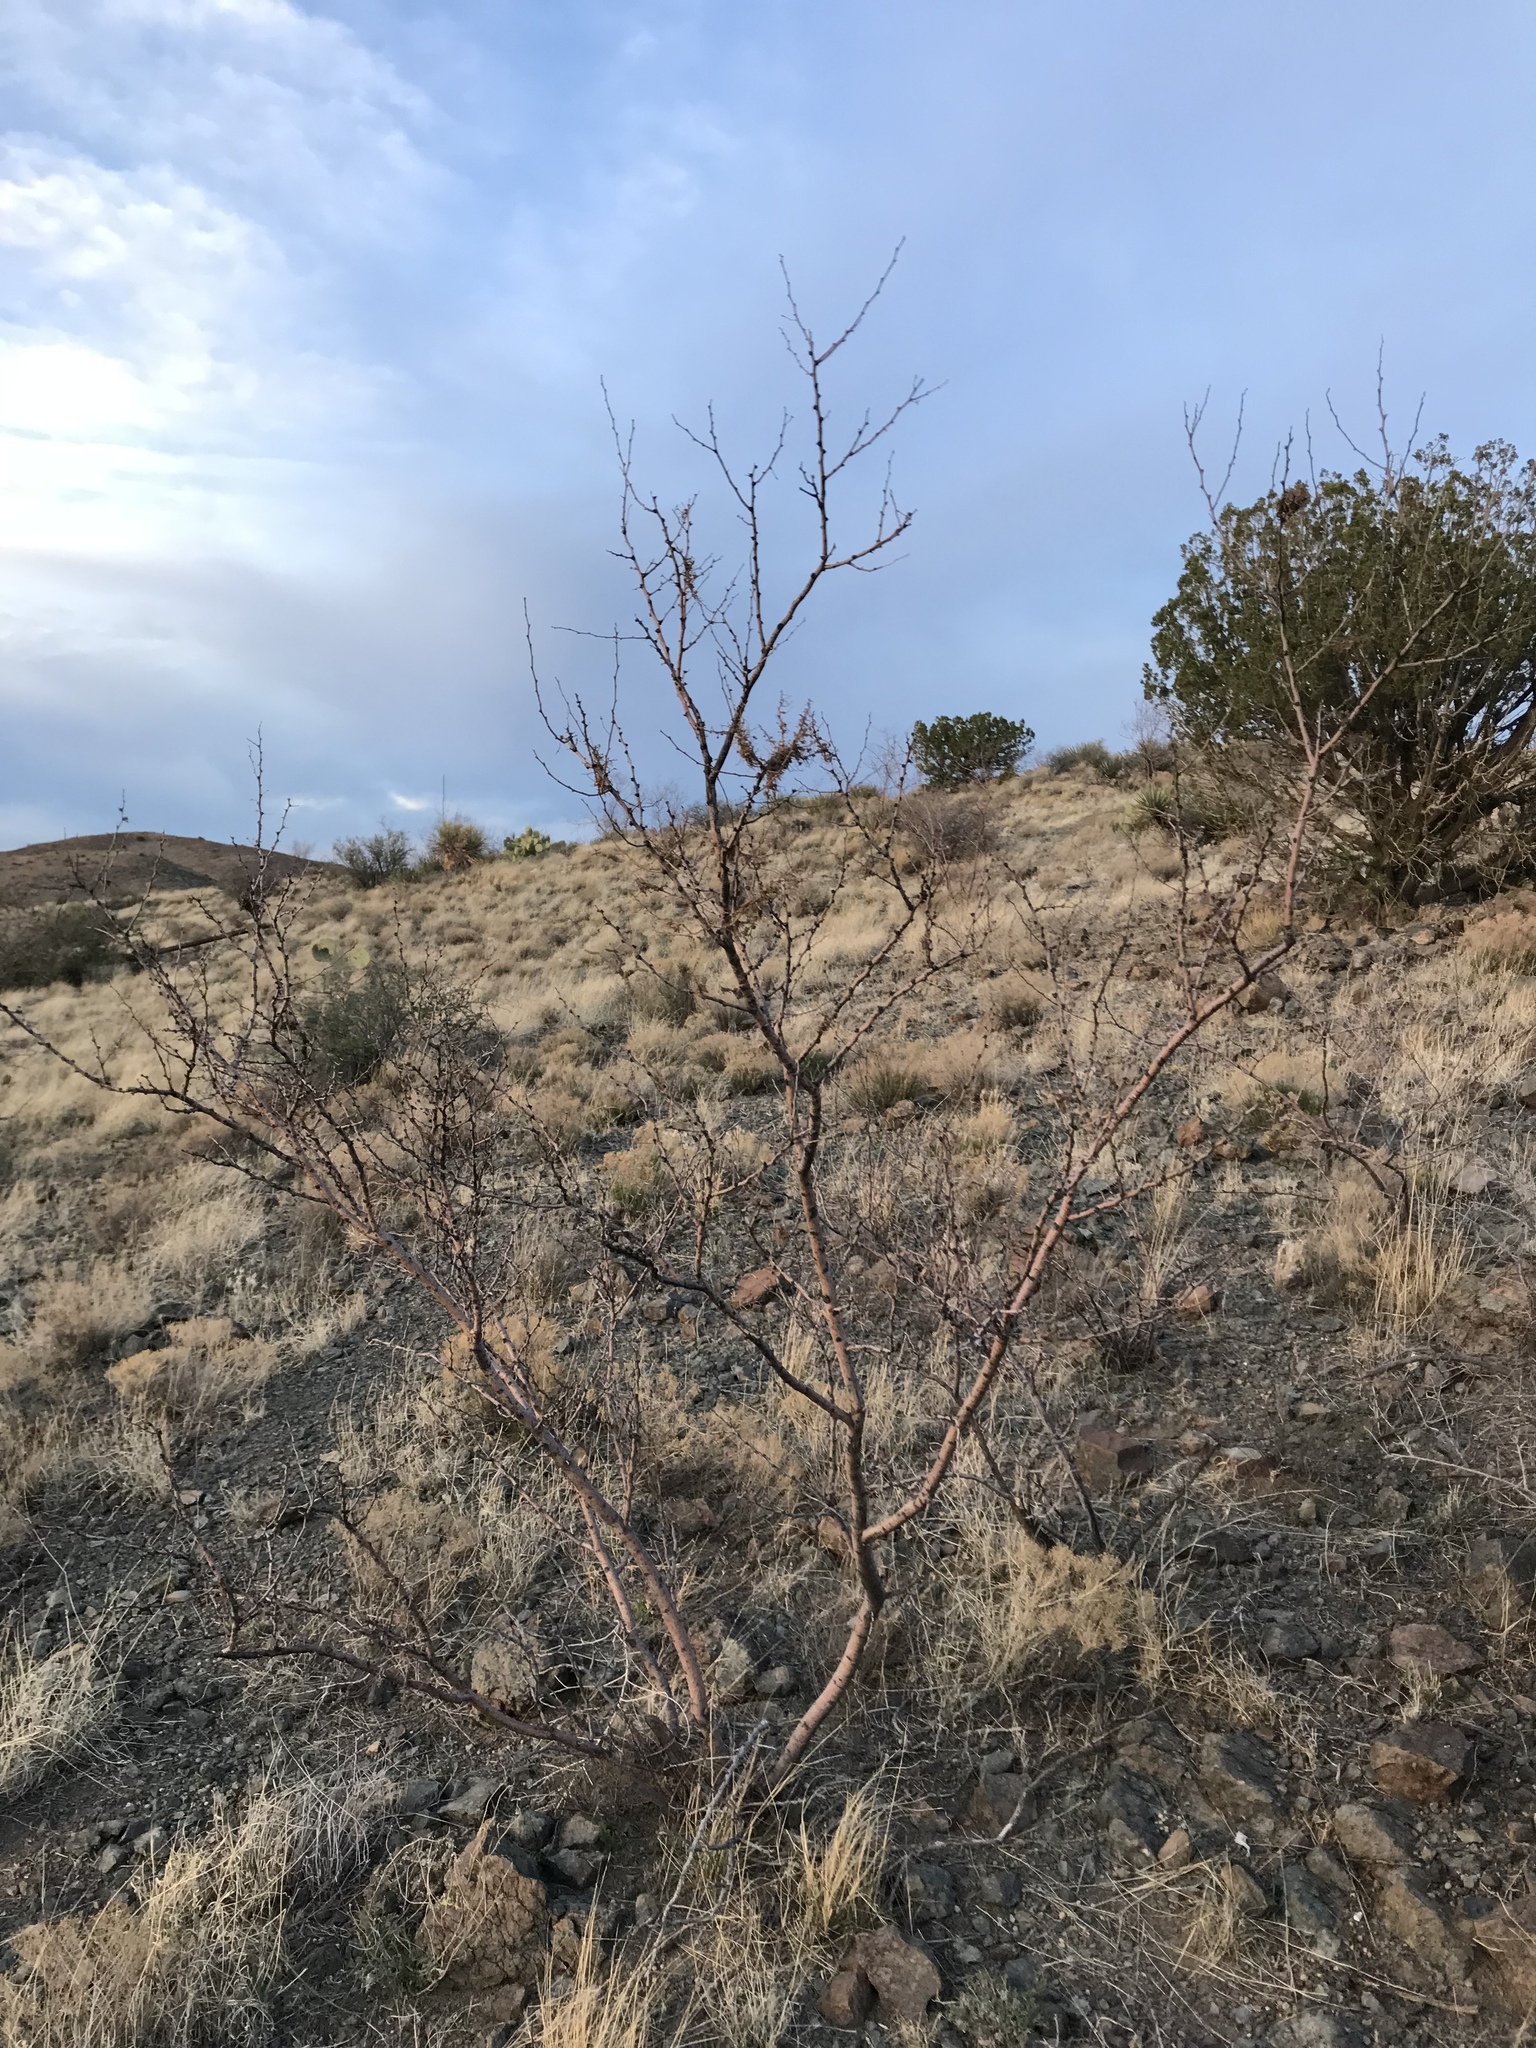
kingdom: Plantae
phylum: Tracheophyta
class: Magnoliopsida
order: Fabales
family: Fabaceae
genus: Vachellia
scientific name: Vachellia constricta
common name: Mescat acacia
